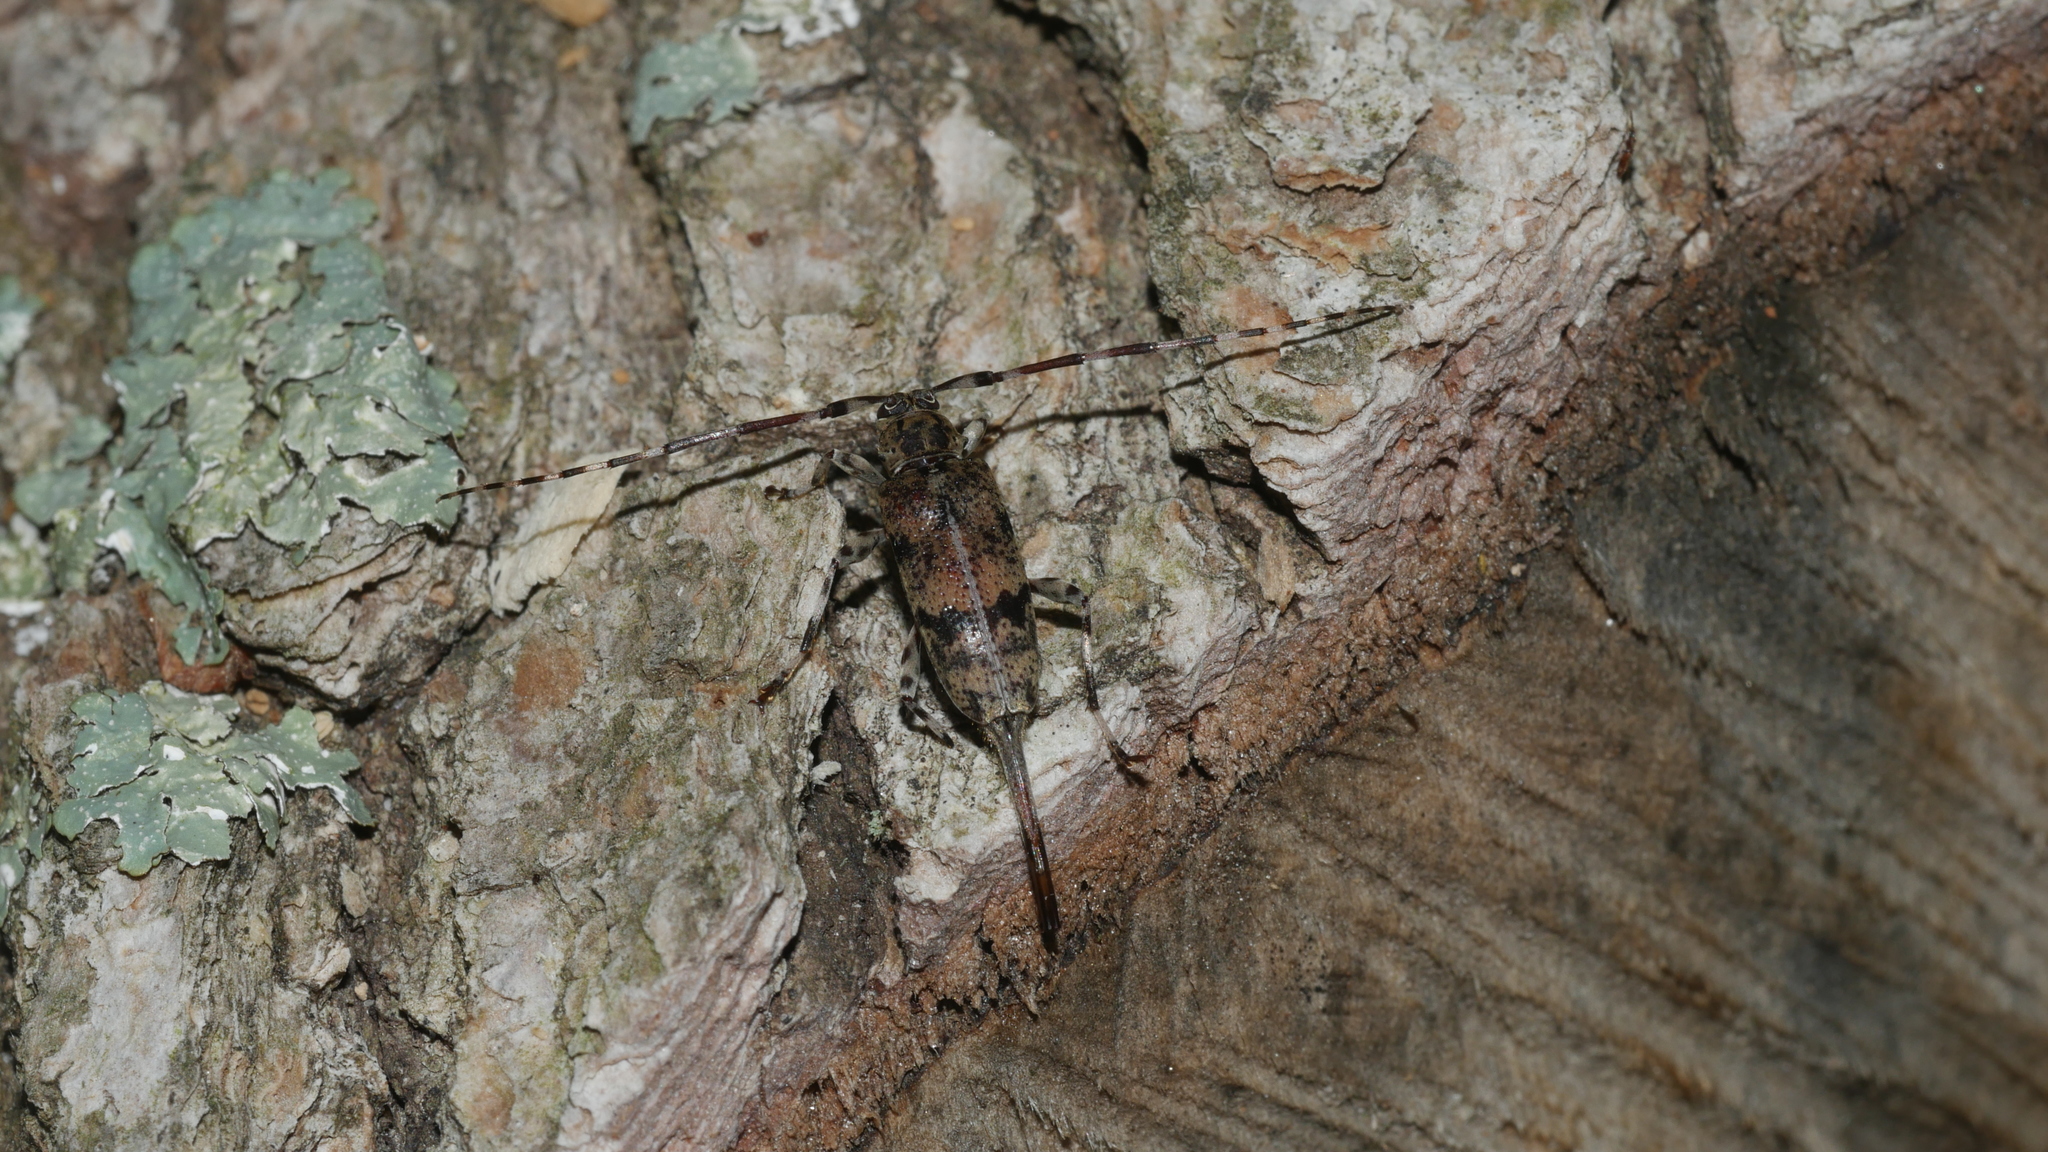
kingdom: Animalia
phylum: Arthropoda
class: Insecta
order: Coleoptera
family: Cerambycidae
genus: Graphisurus
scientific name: Graphisurus fasciatus
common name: Banded graphisurus
